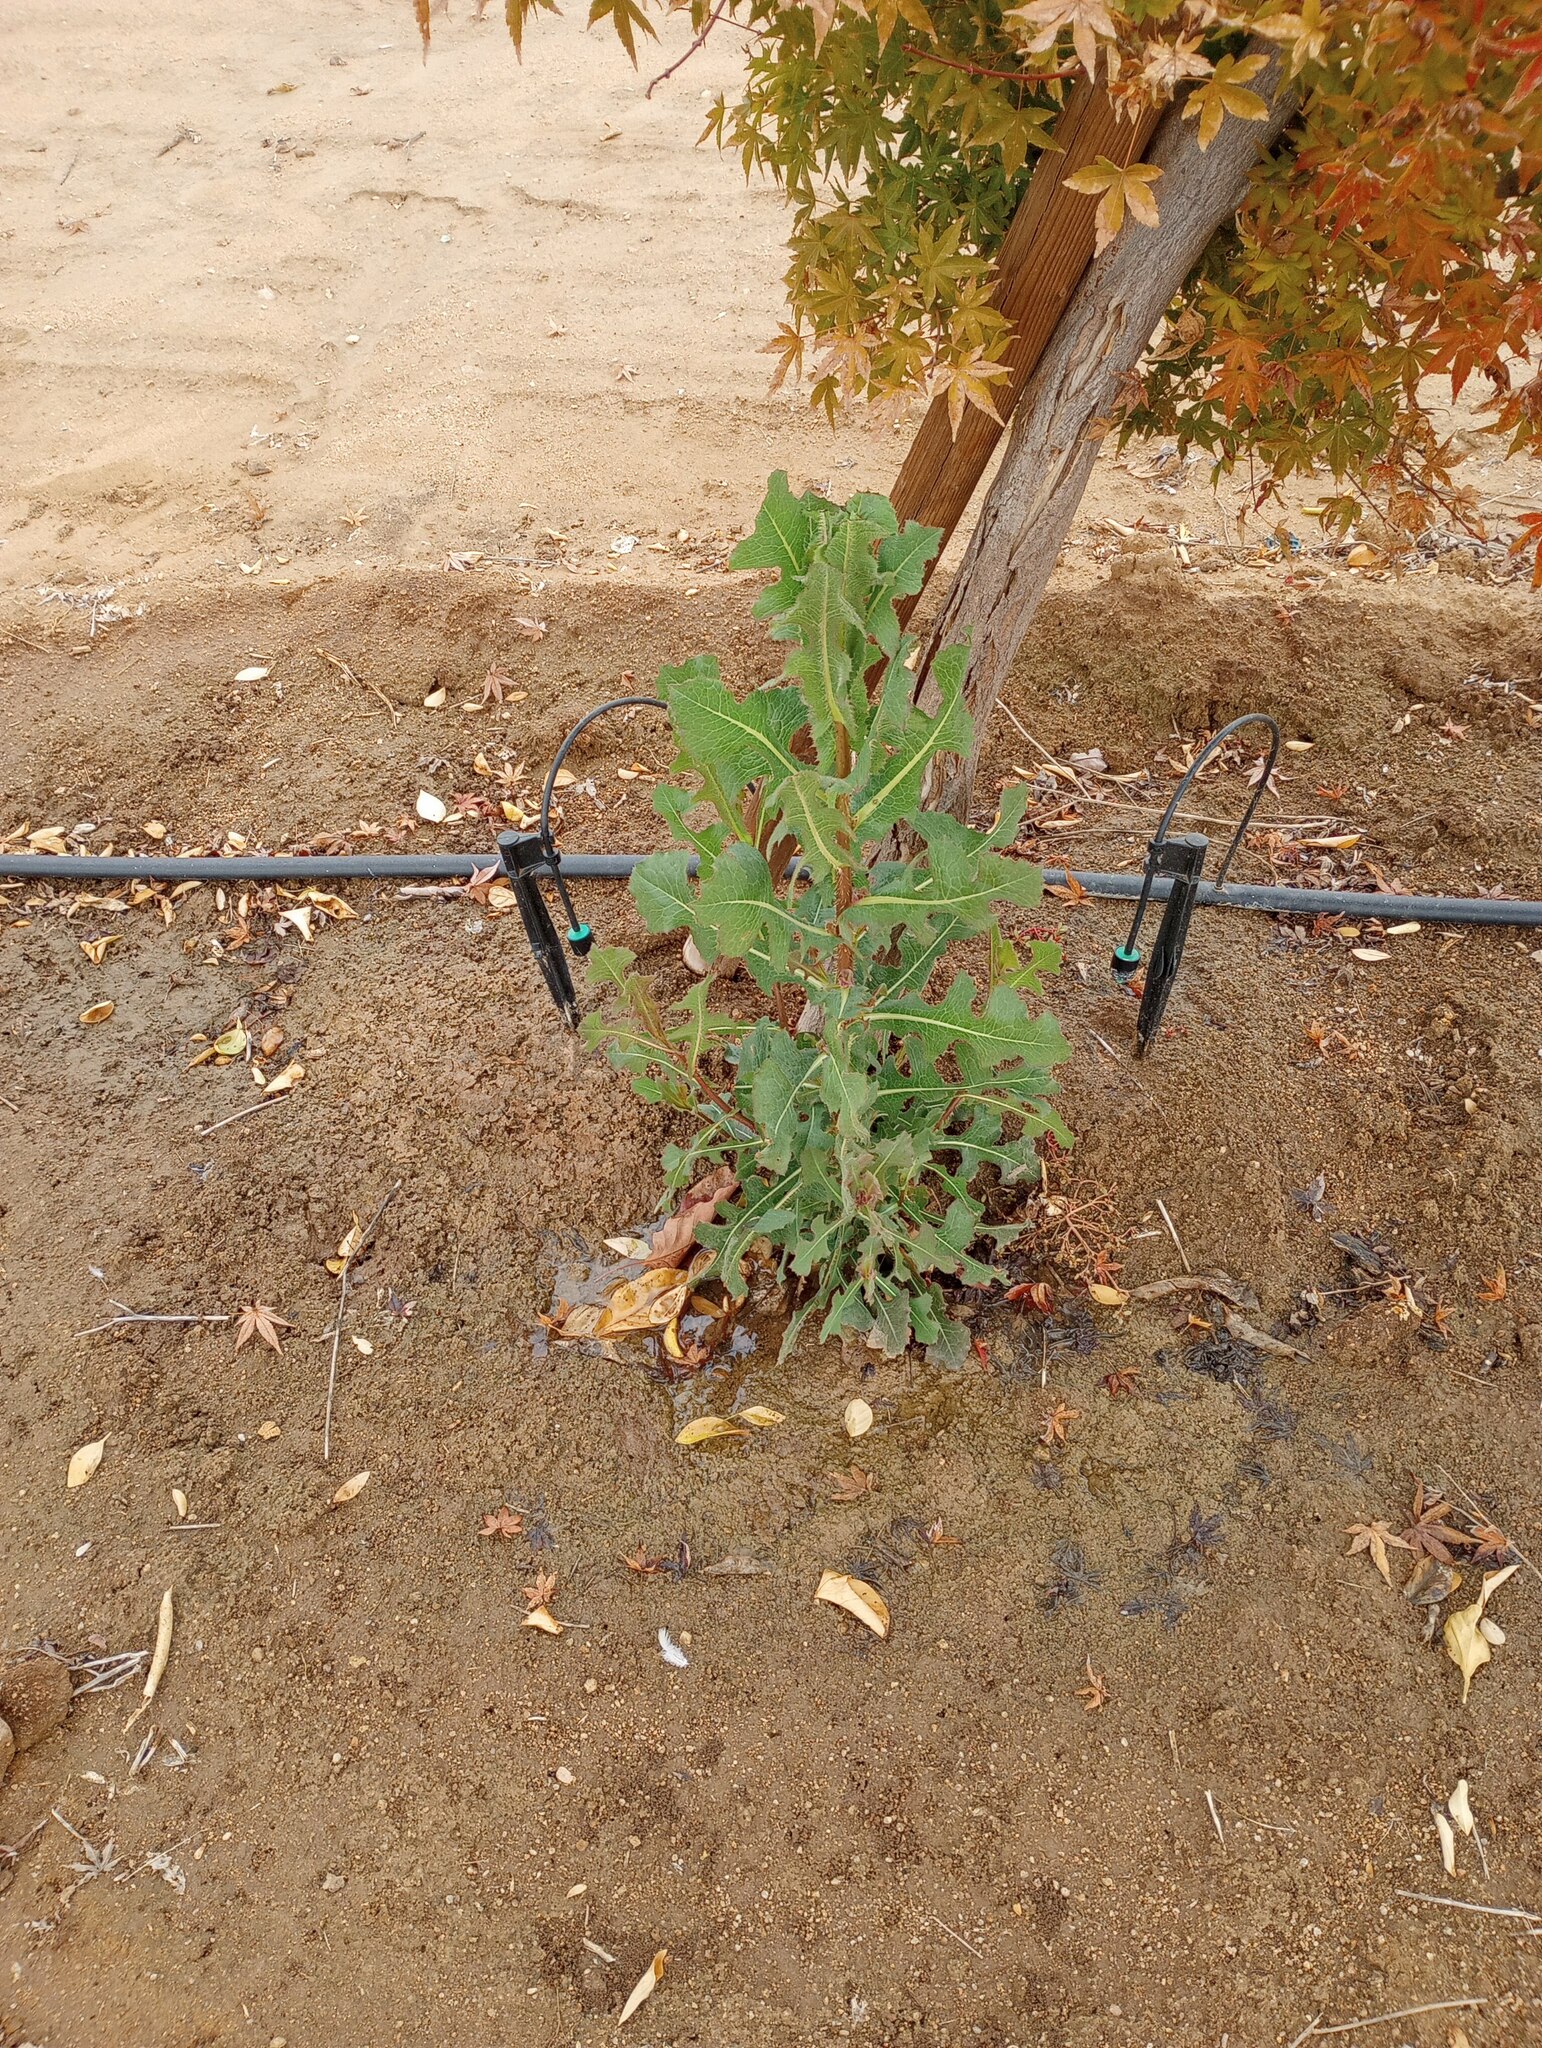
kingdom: Plantae
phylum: Tracheophyta
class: Magnoliopsida
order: Asterales
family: Asteraceae
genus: Lactuca
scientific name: Lactuca serriola
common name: Prickly lettuce
